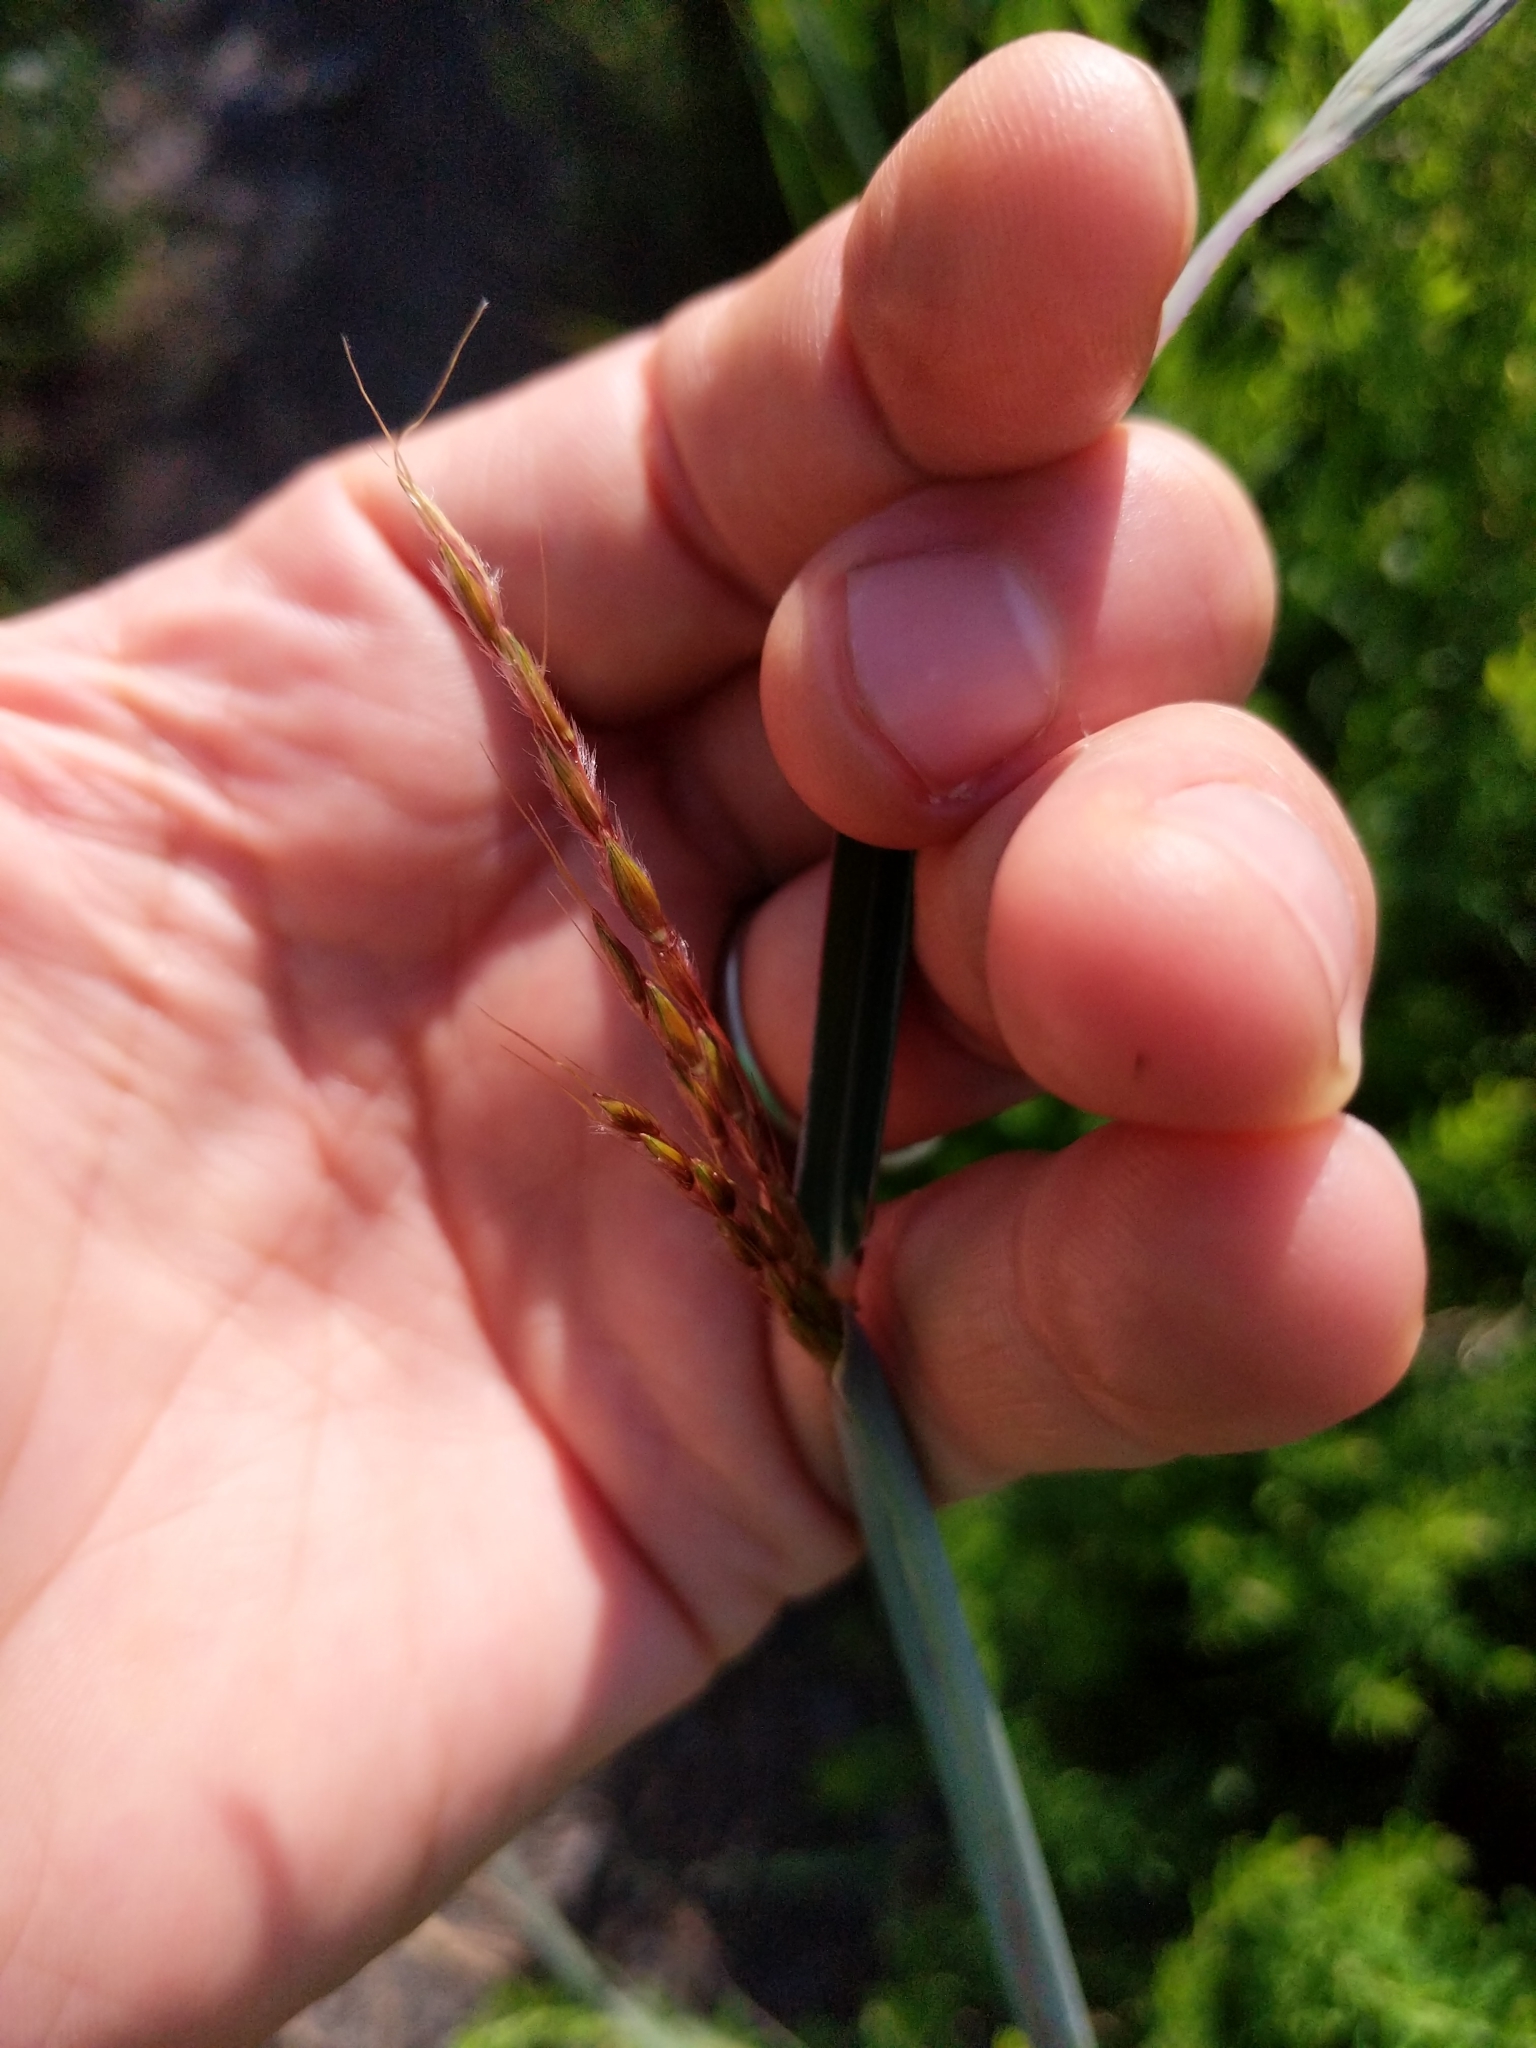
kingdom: Plantae
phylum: Tracheophyta
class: Liliopsida
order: Poales
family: Poaceae
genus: Sorghastrum
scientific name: Sorghastrum nutans
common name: Indian grass
